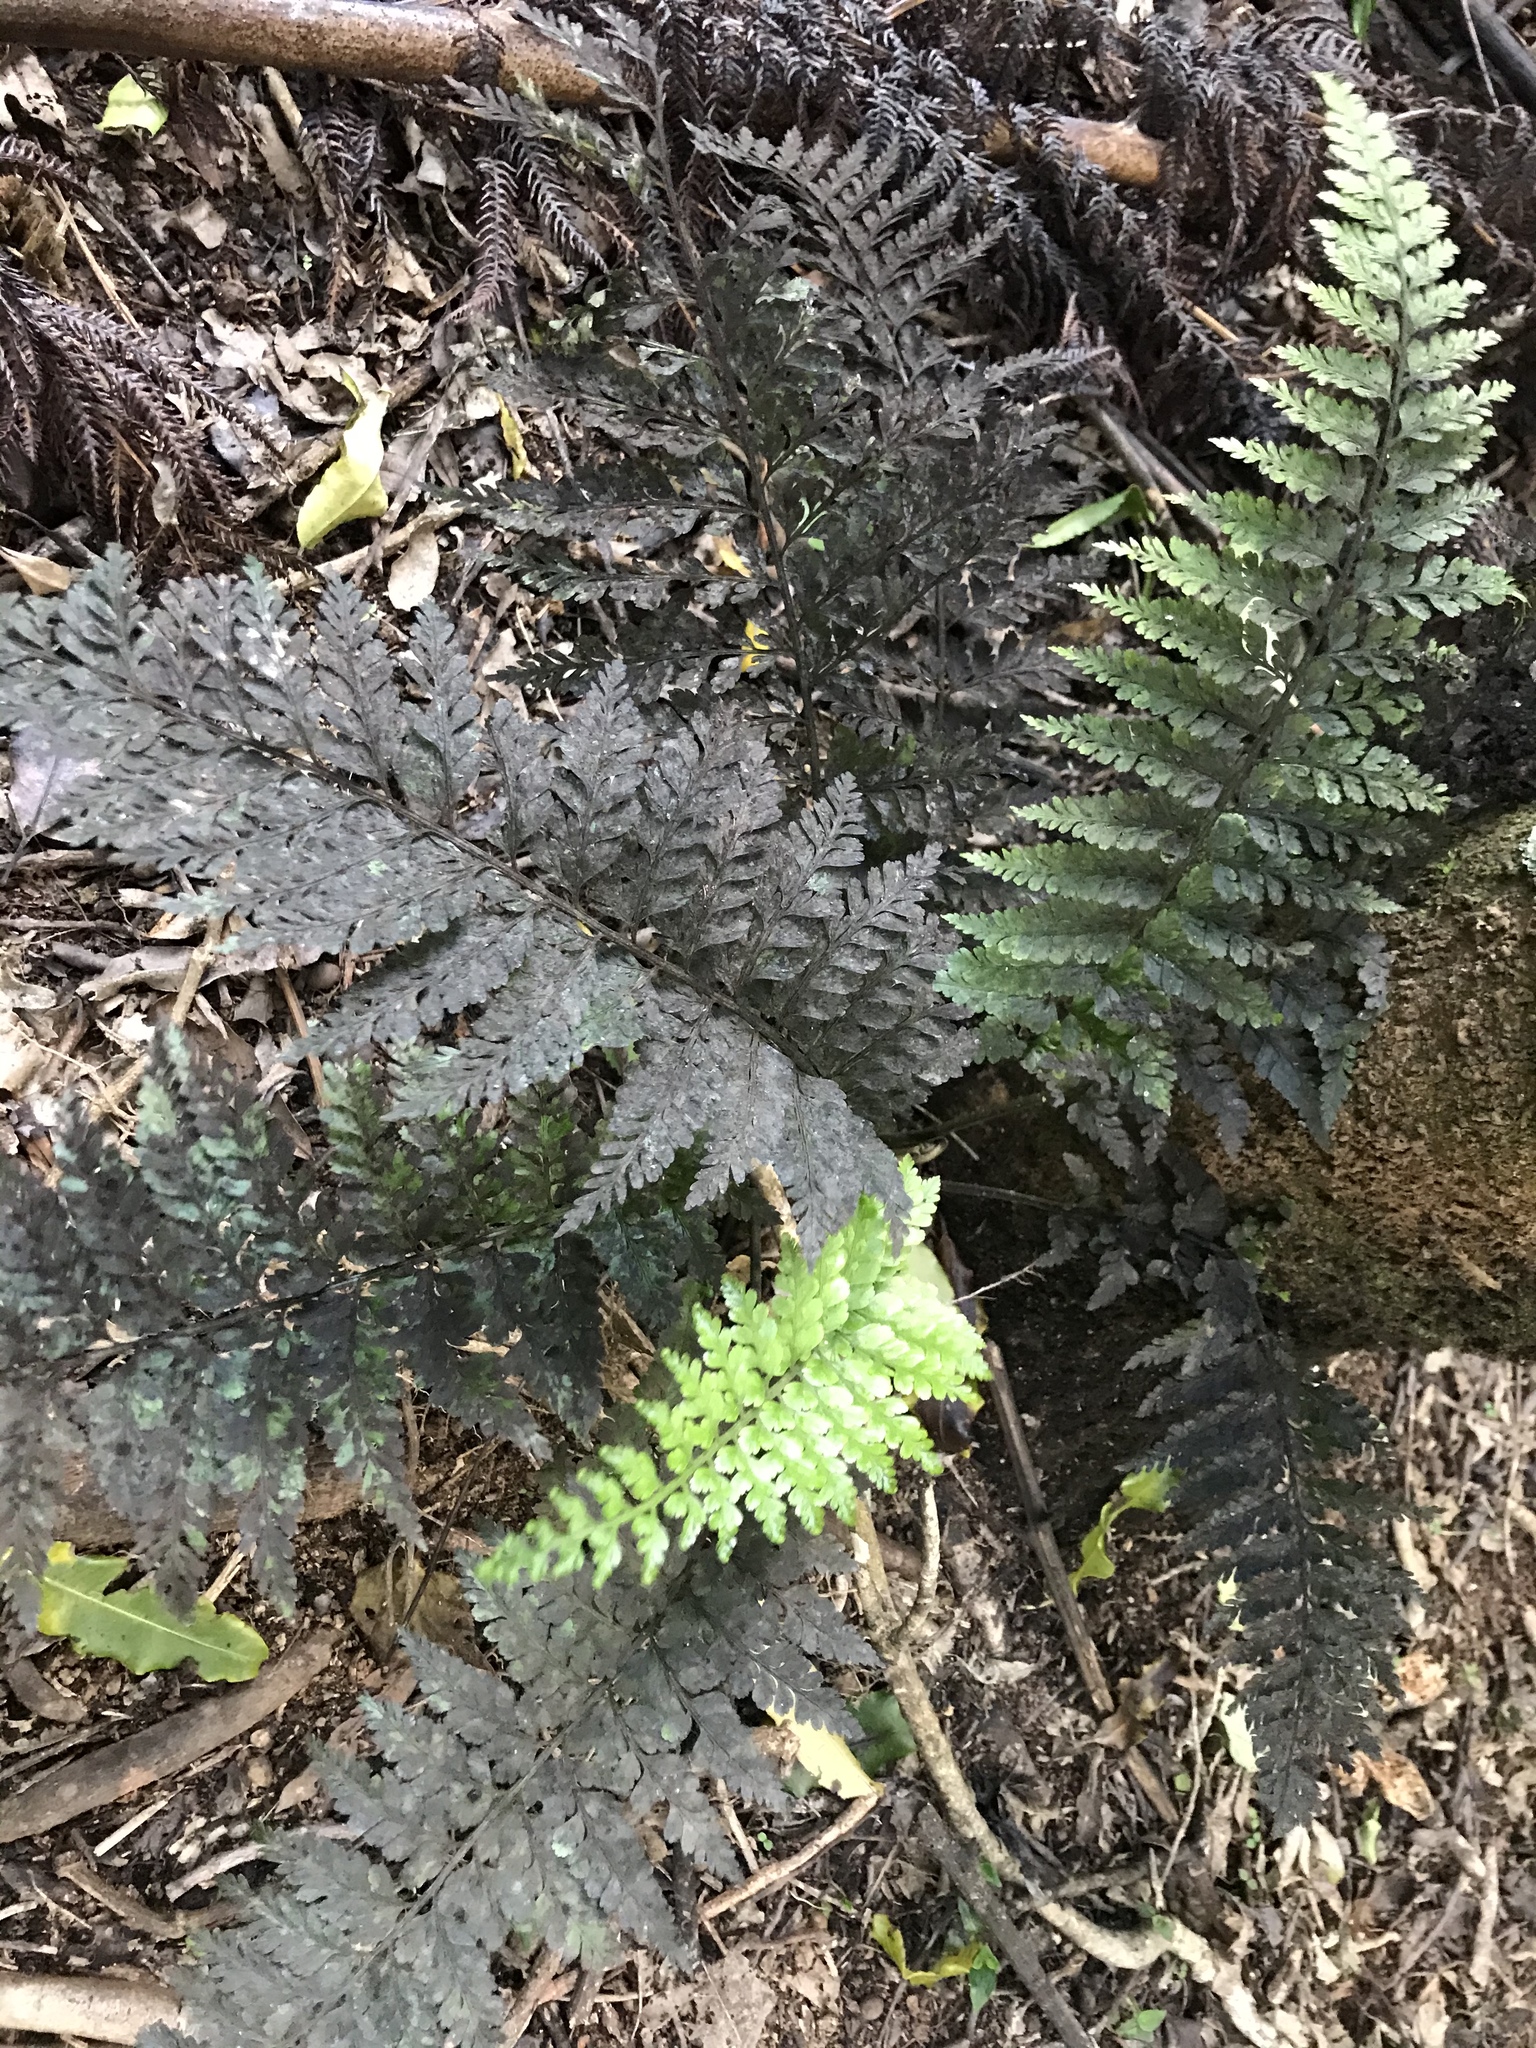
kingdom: Plantae
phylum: Tracheophyta
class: Polypodiopsida
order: Polypodiales
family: Aspleniaceae
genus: Asplenium
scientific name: Asplenium
